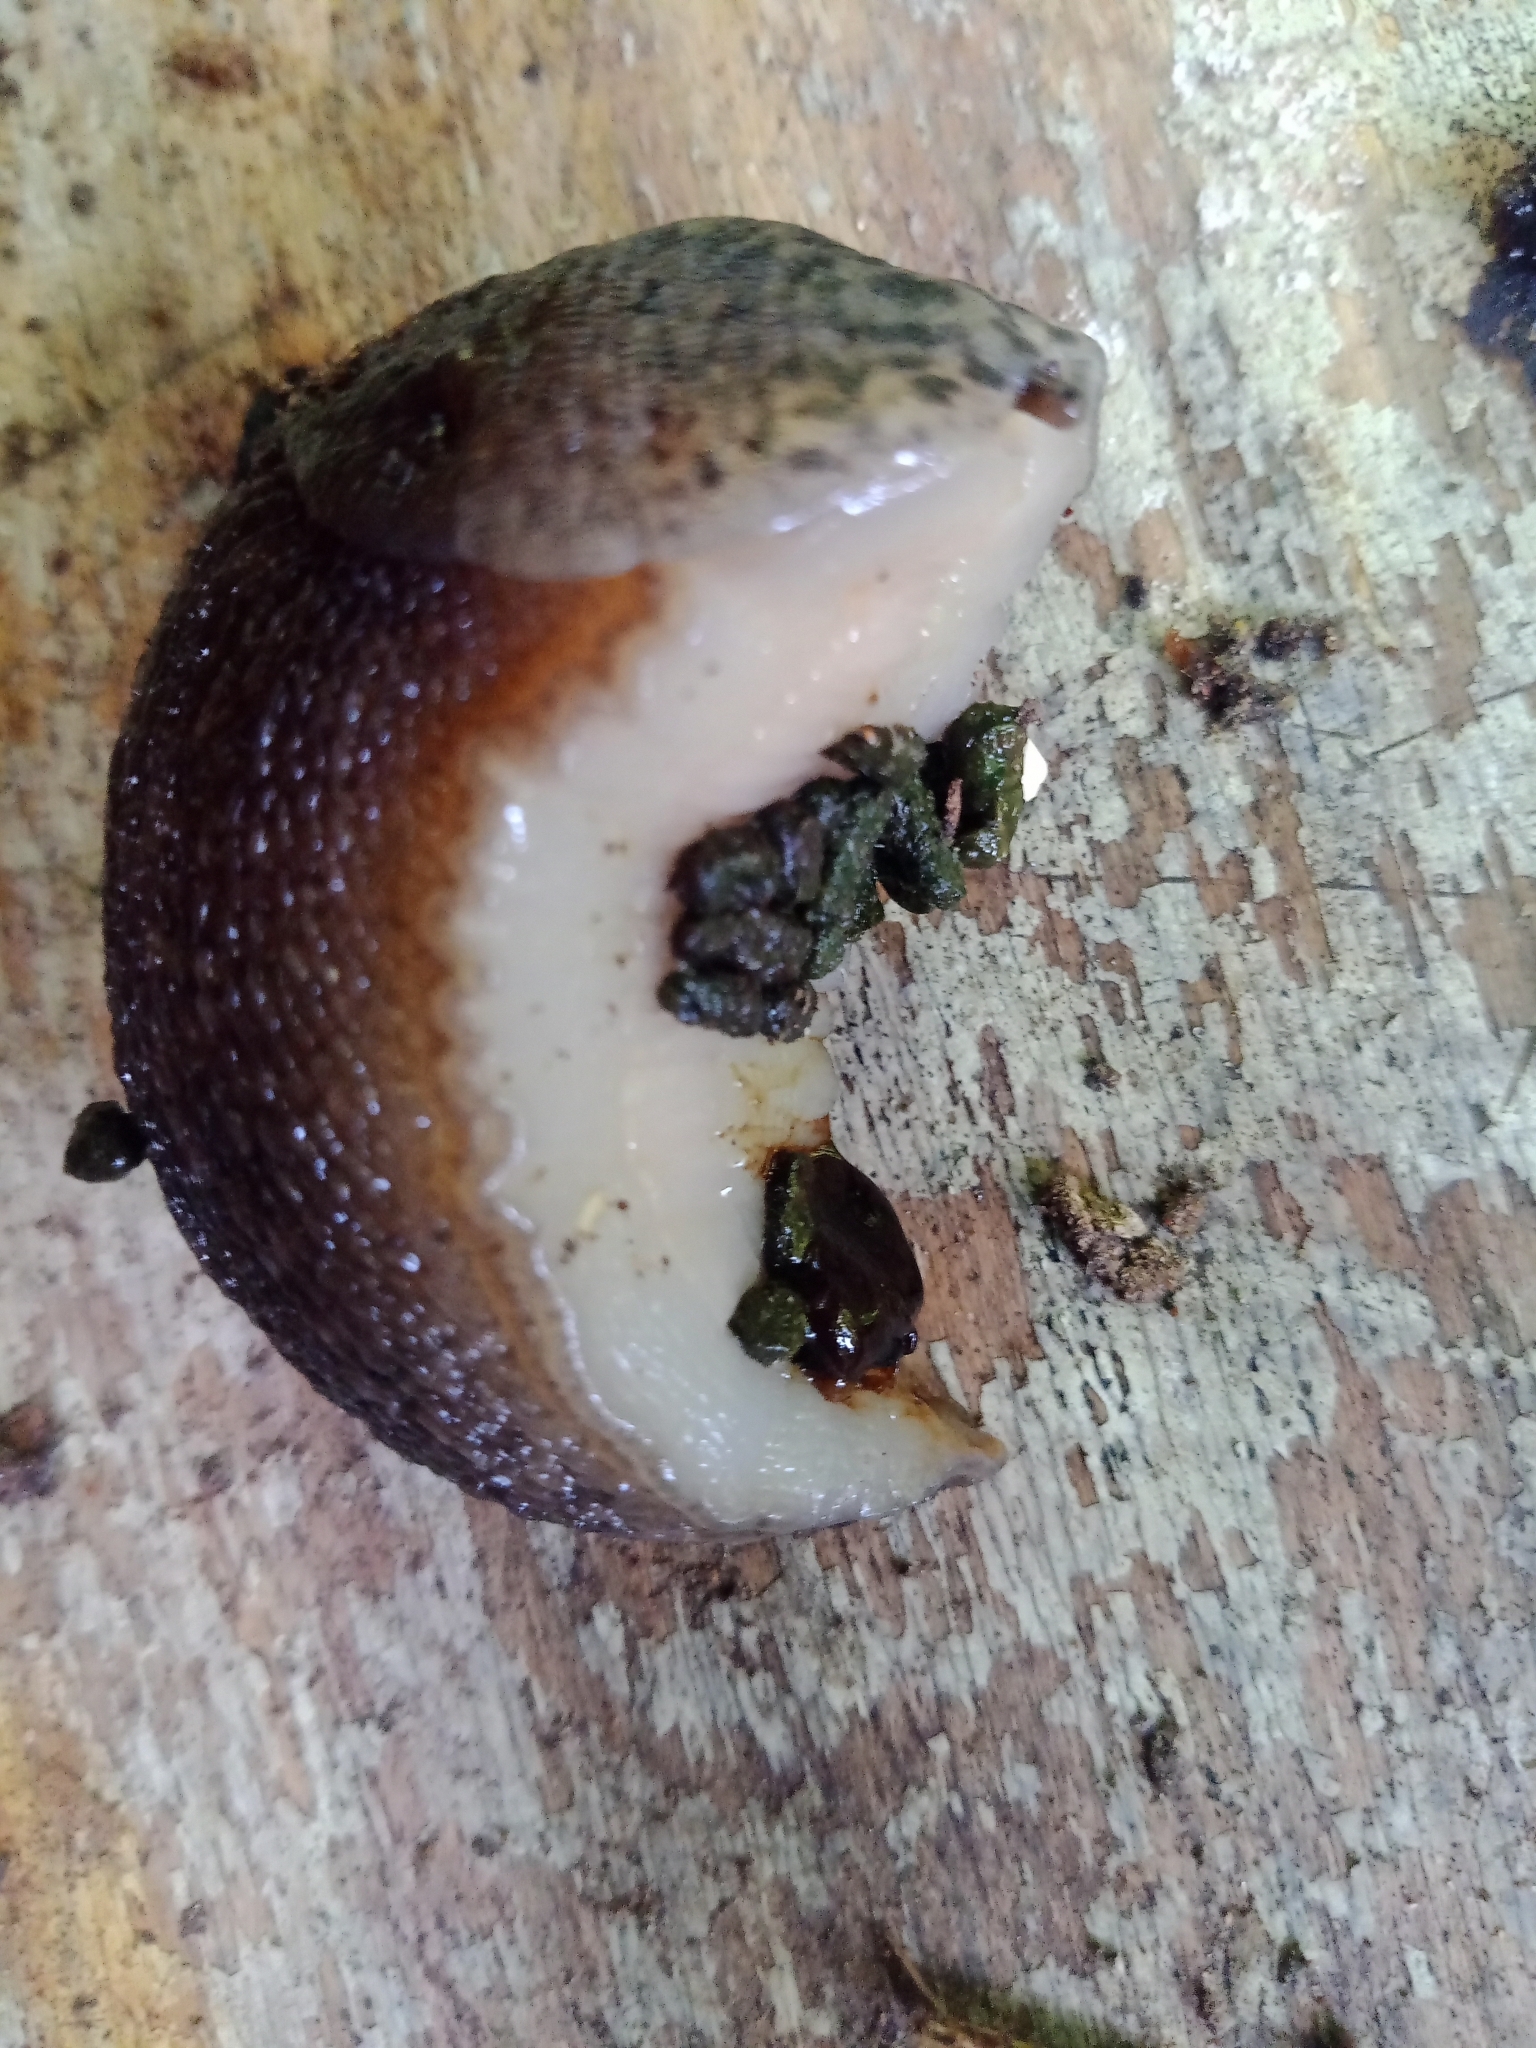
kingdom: Animalia
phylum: Mollusca
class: Gastropoda
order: Stylommatophora
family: Limacidae
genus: Limax
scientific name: Limax maximus
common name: Great grey slug
